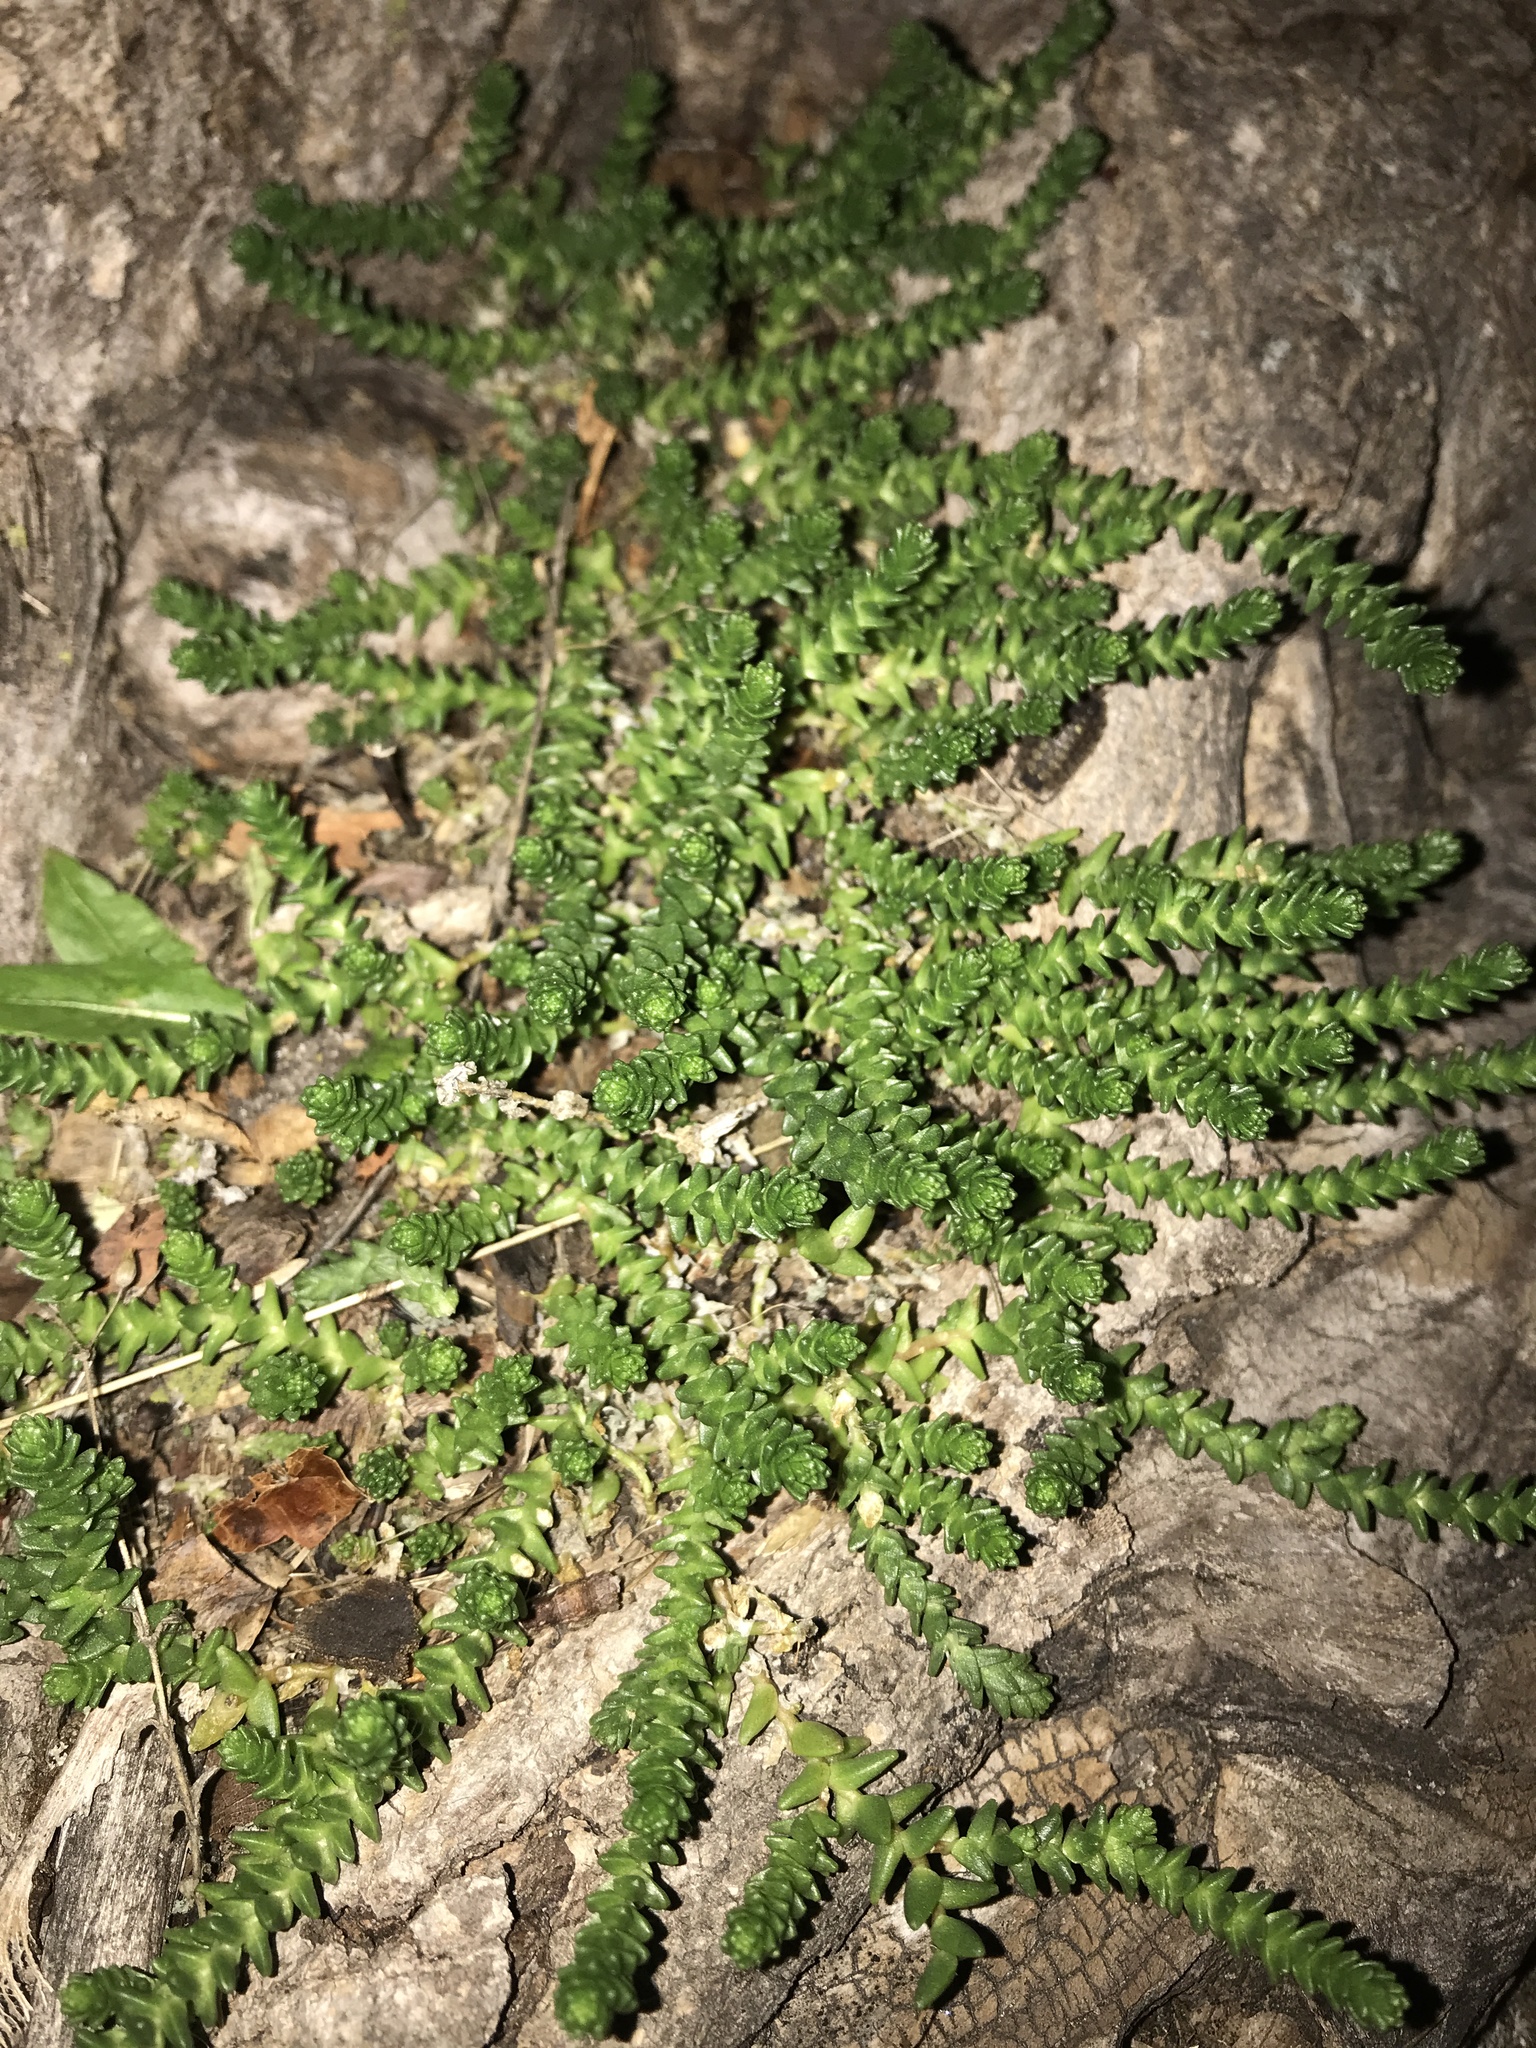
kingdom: Plantae
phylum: Tracheophyta
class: Magnoliopsida
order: Saxifragales
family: Crassulaceae
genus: Sedum
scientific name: Sedum acre
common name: Biting stonecrop
